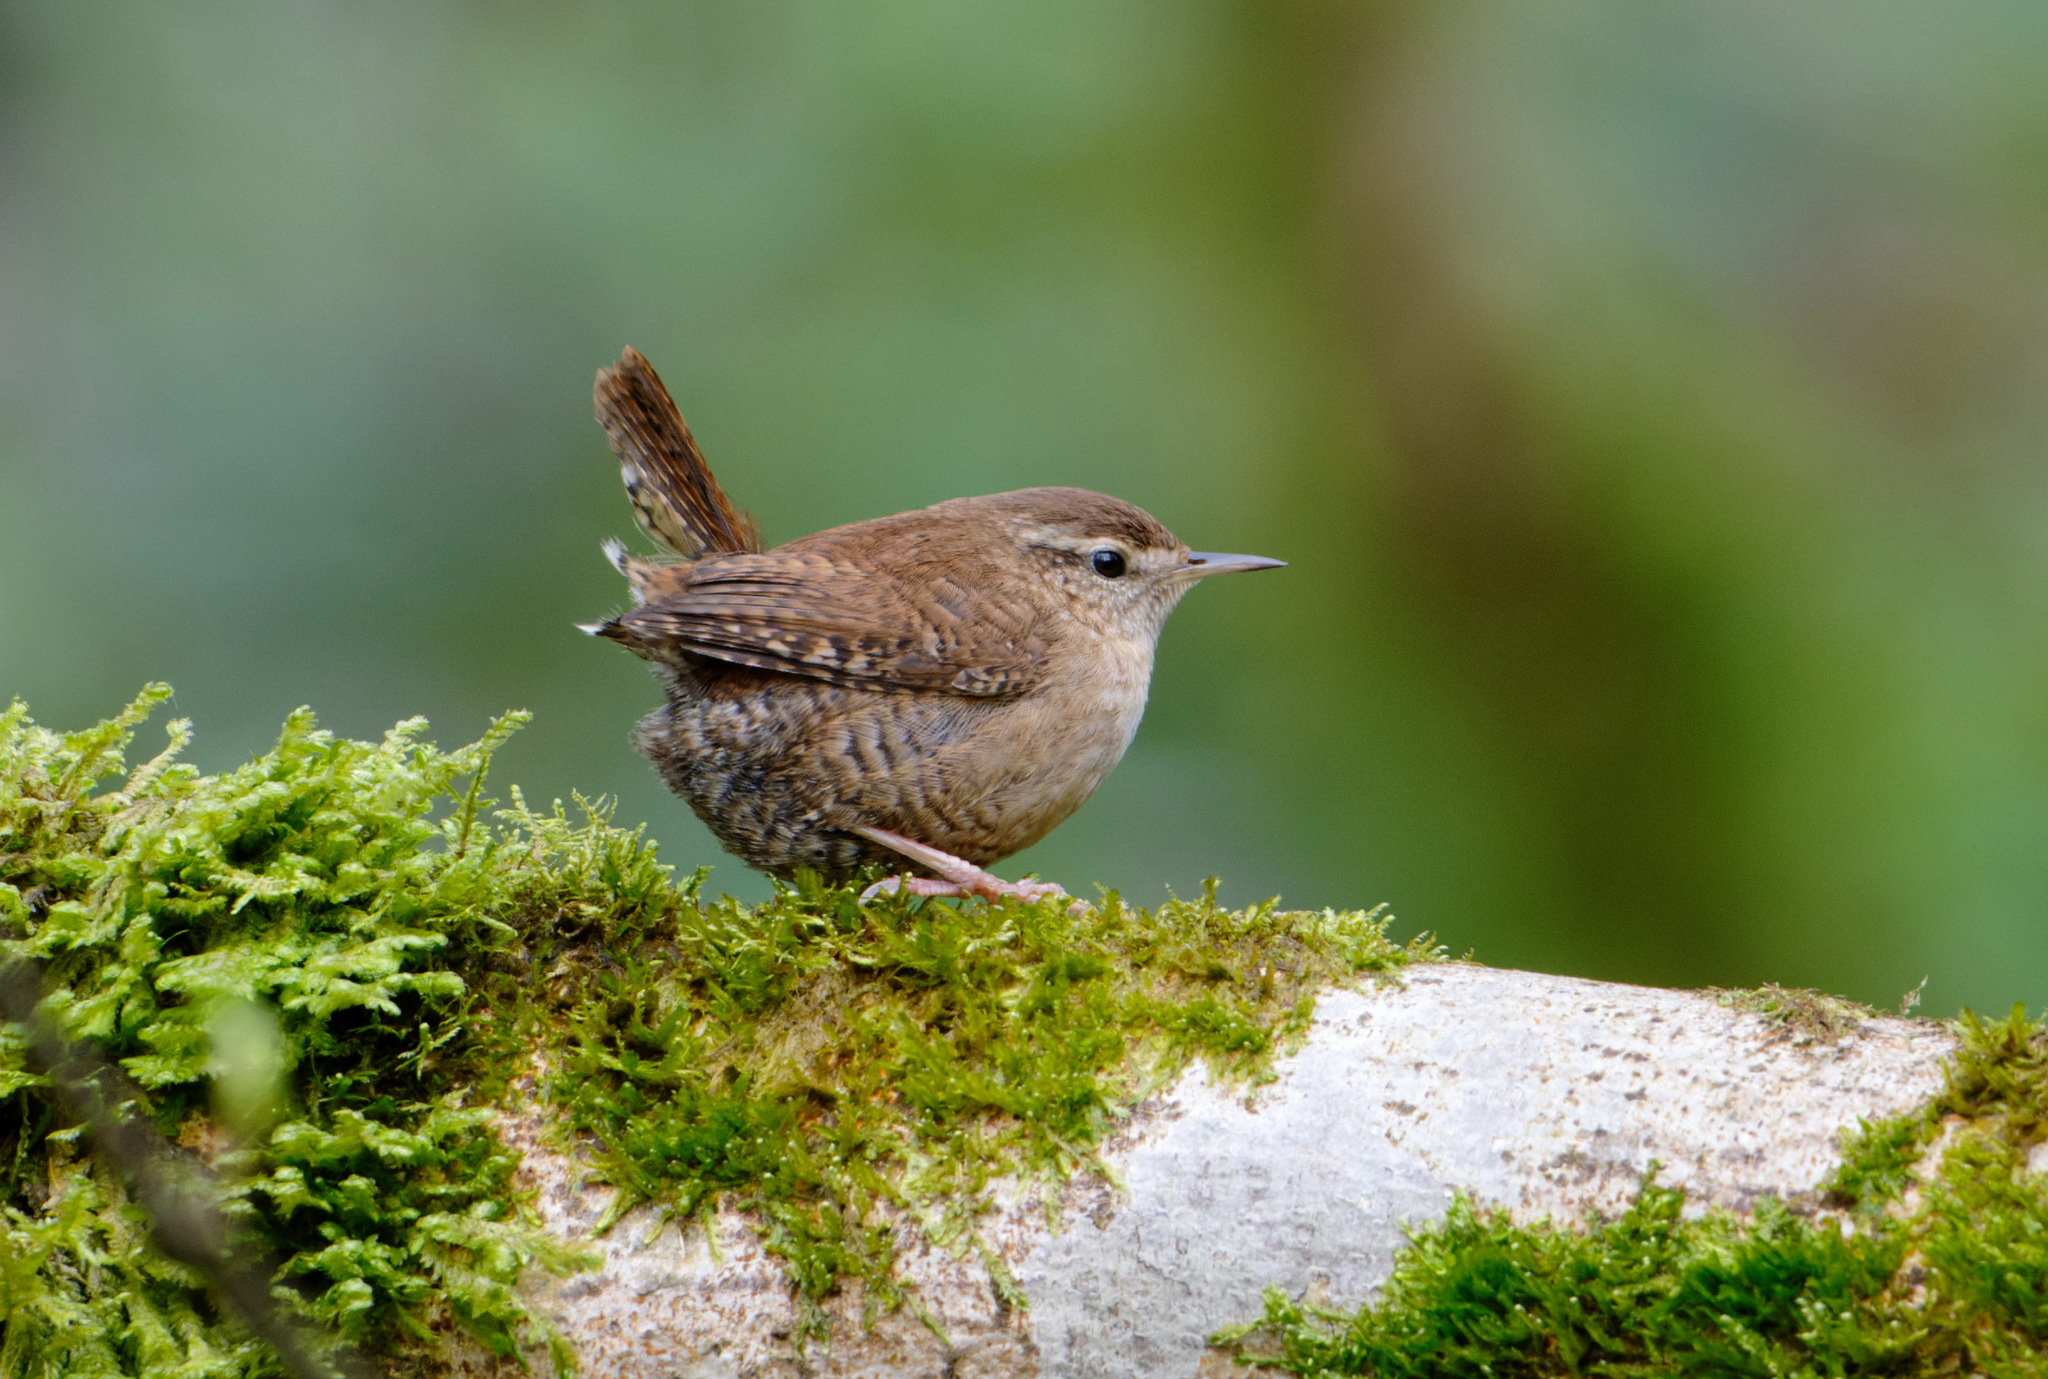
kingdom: Animalia
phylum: Chordata
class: Aves
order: Passeriformes
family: Troglodytidae
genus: Troglodytes
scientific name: Troglodytes troglodytes
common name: Eurasian wren
